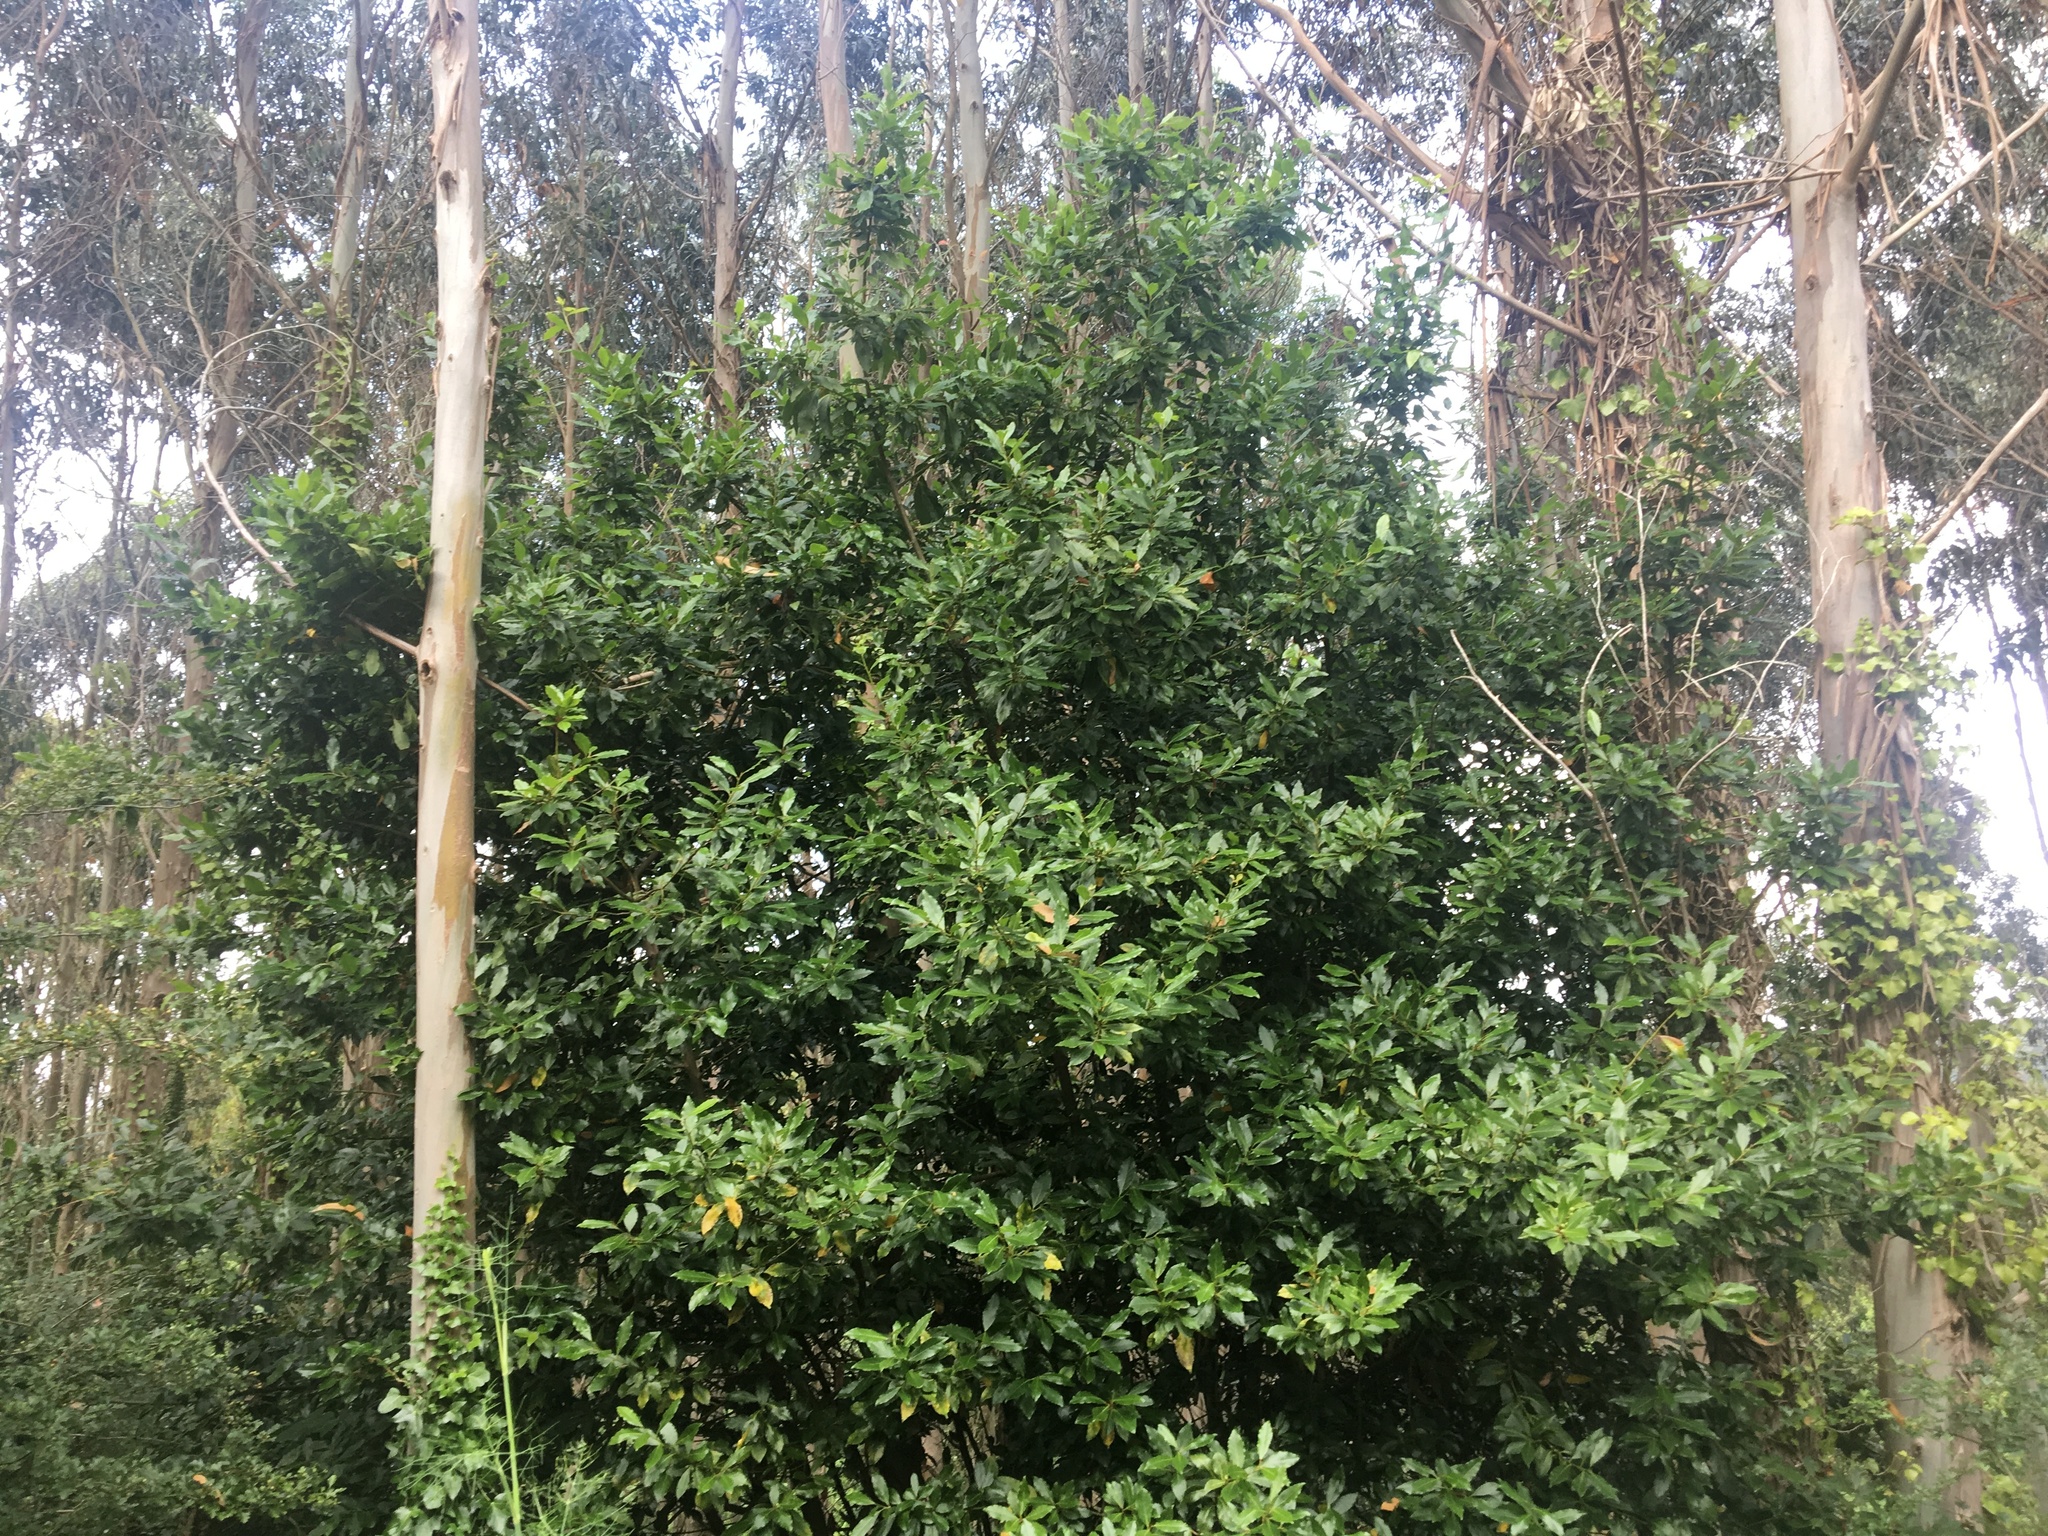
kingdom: Plantae
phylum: Tracheophyta
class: Magnoliopsida
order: Laurales
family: Lauraceae
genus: Laurus
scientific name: Laurus nobilis
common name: Bay
